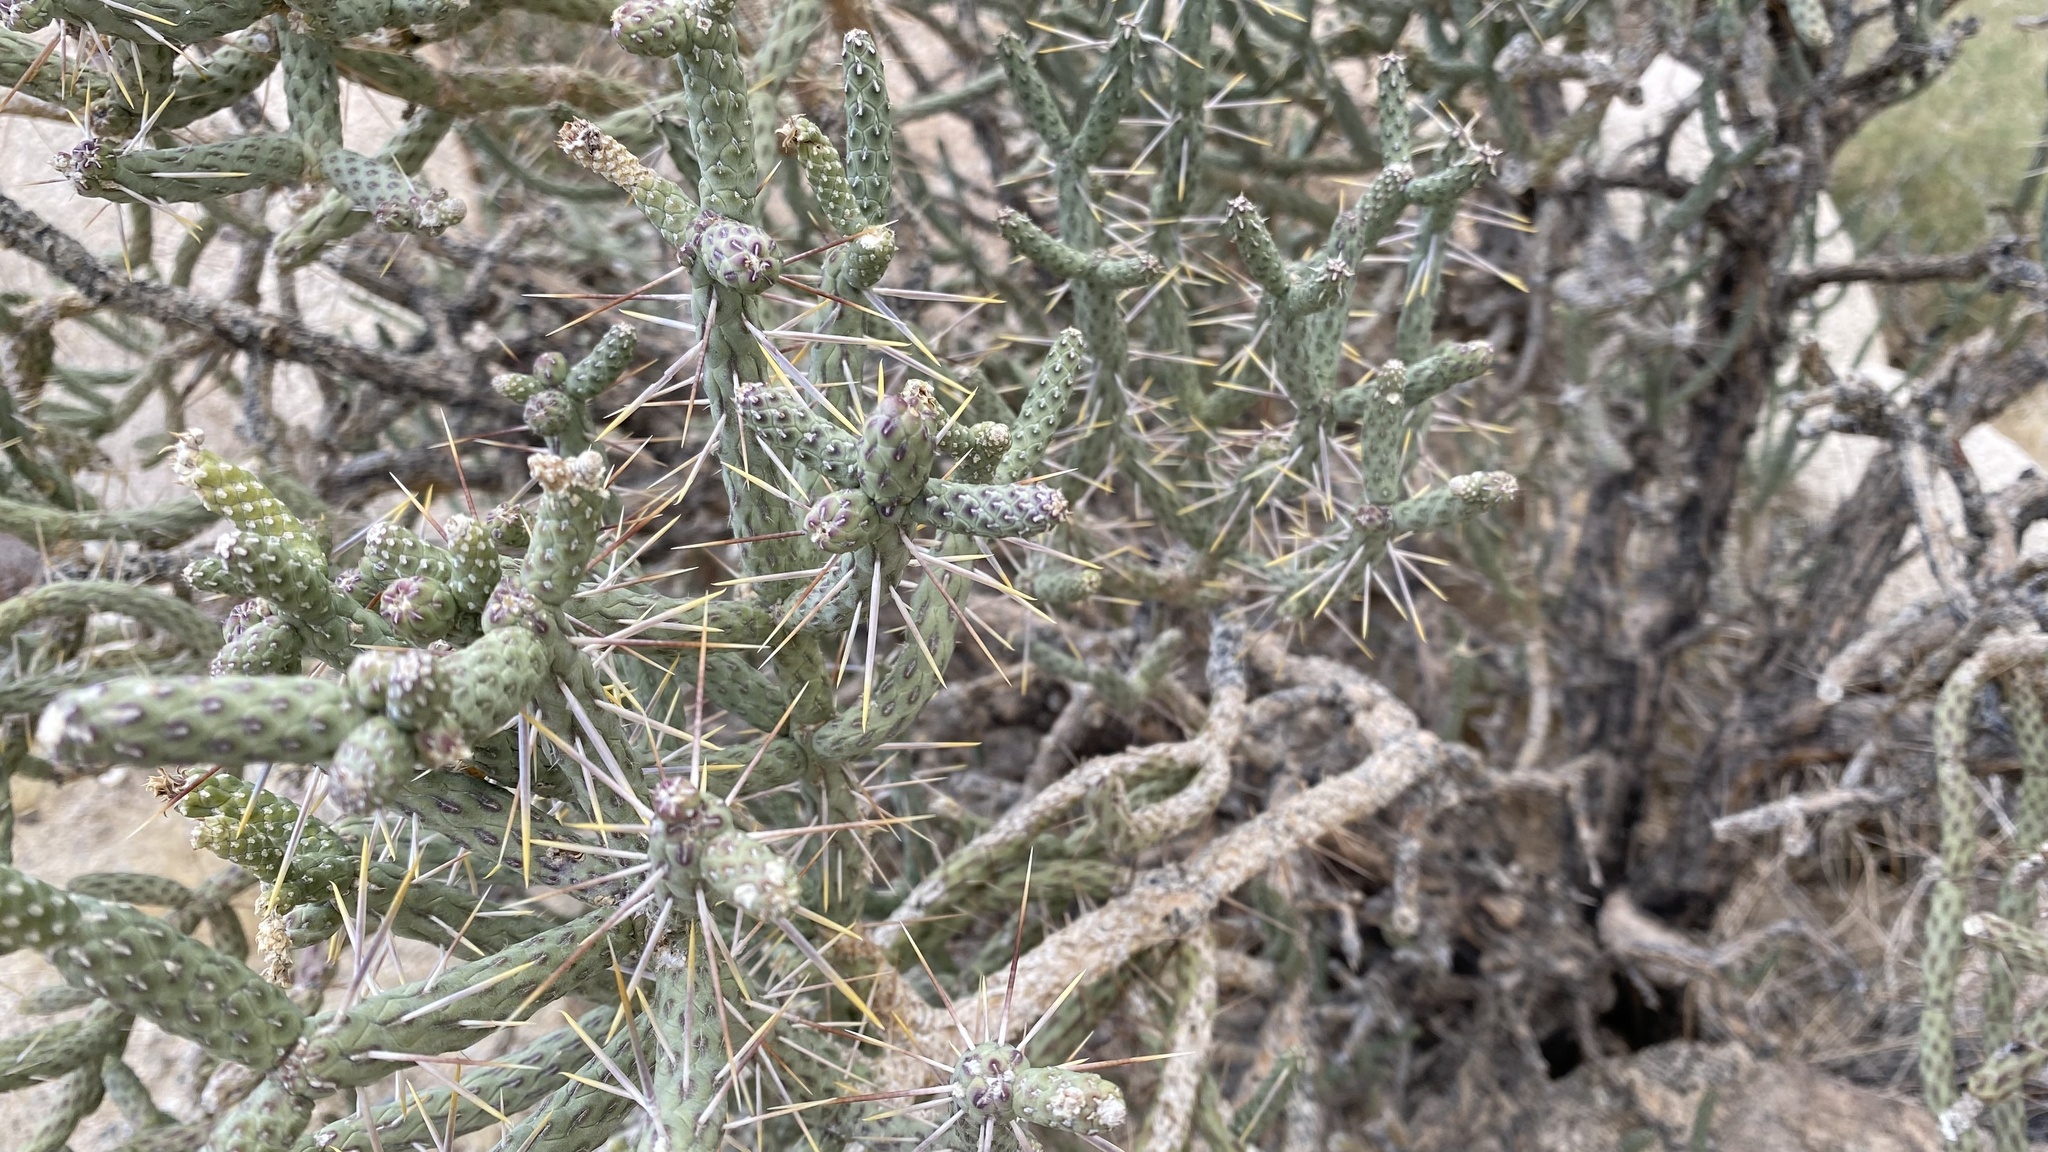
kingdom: Plantae
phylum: Tracheophyta
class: Magnoliopsida
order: Caryophyllales
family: Cactaceae
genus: Cylindropuntia
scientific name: Cylindropuntia ramosissima
